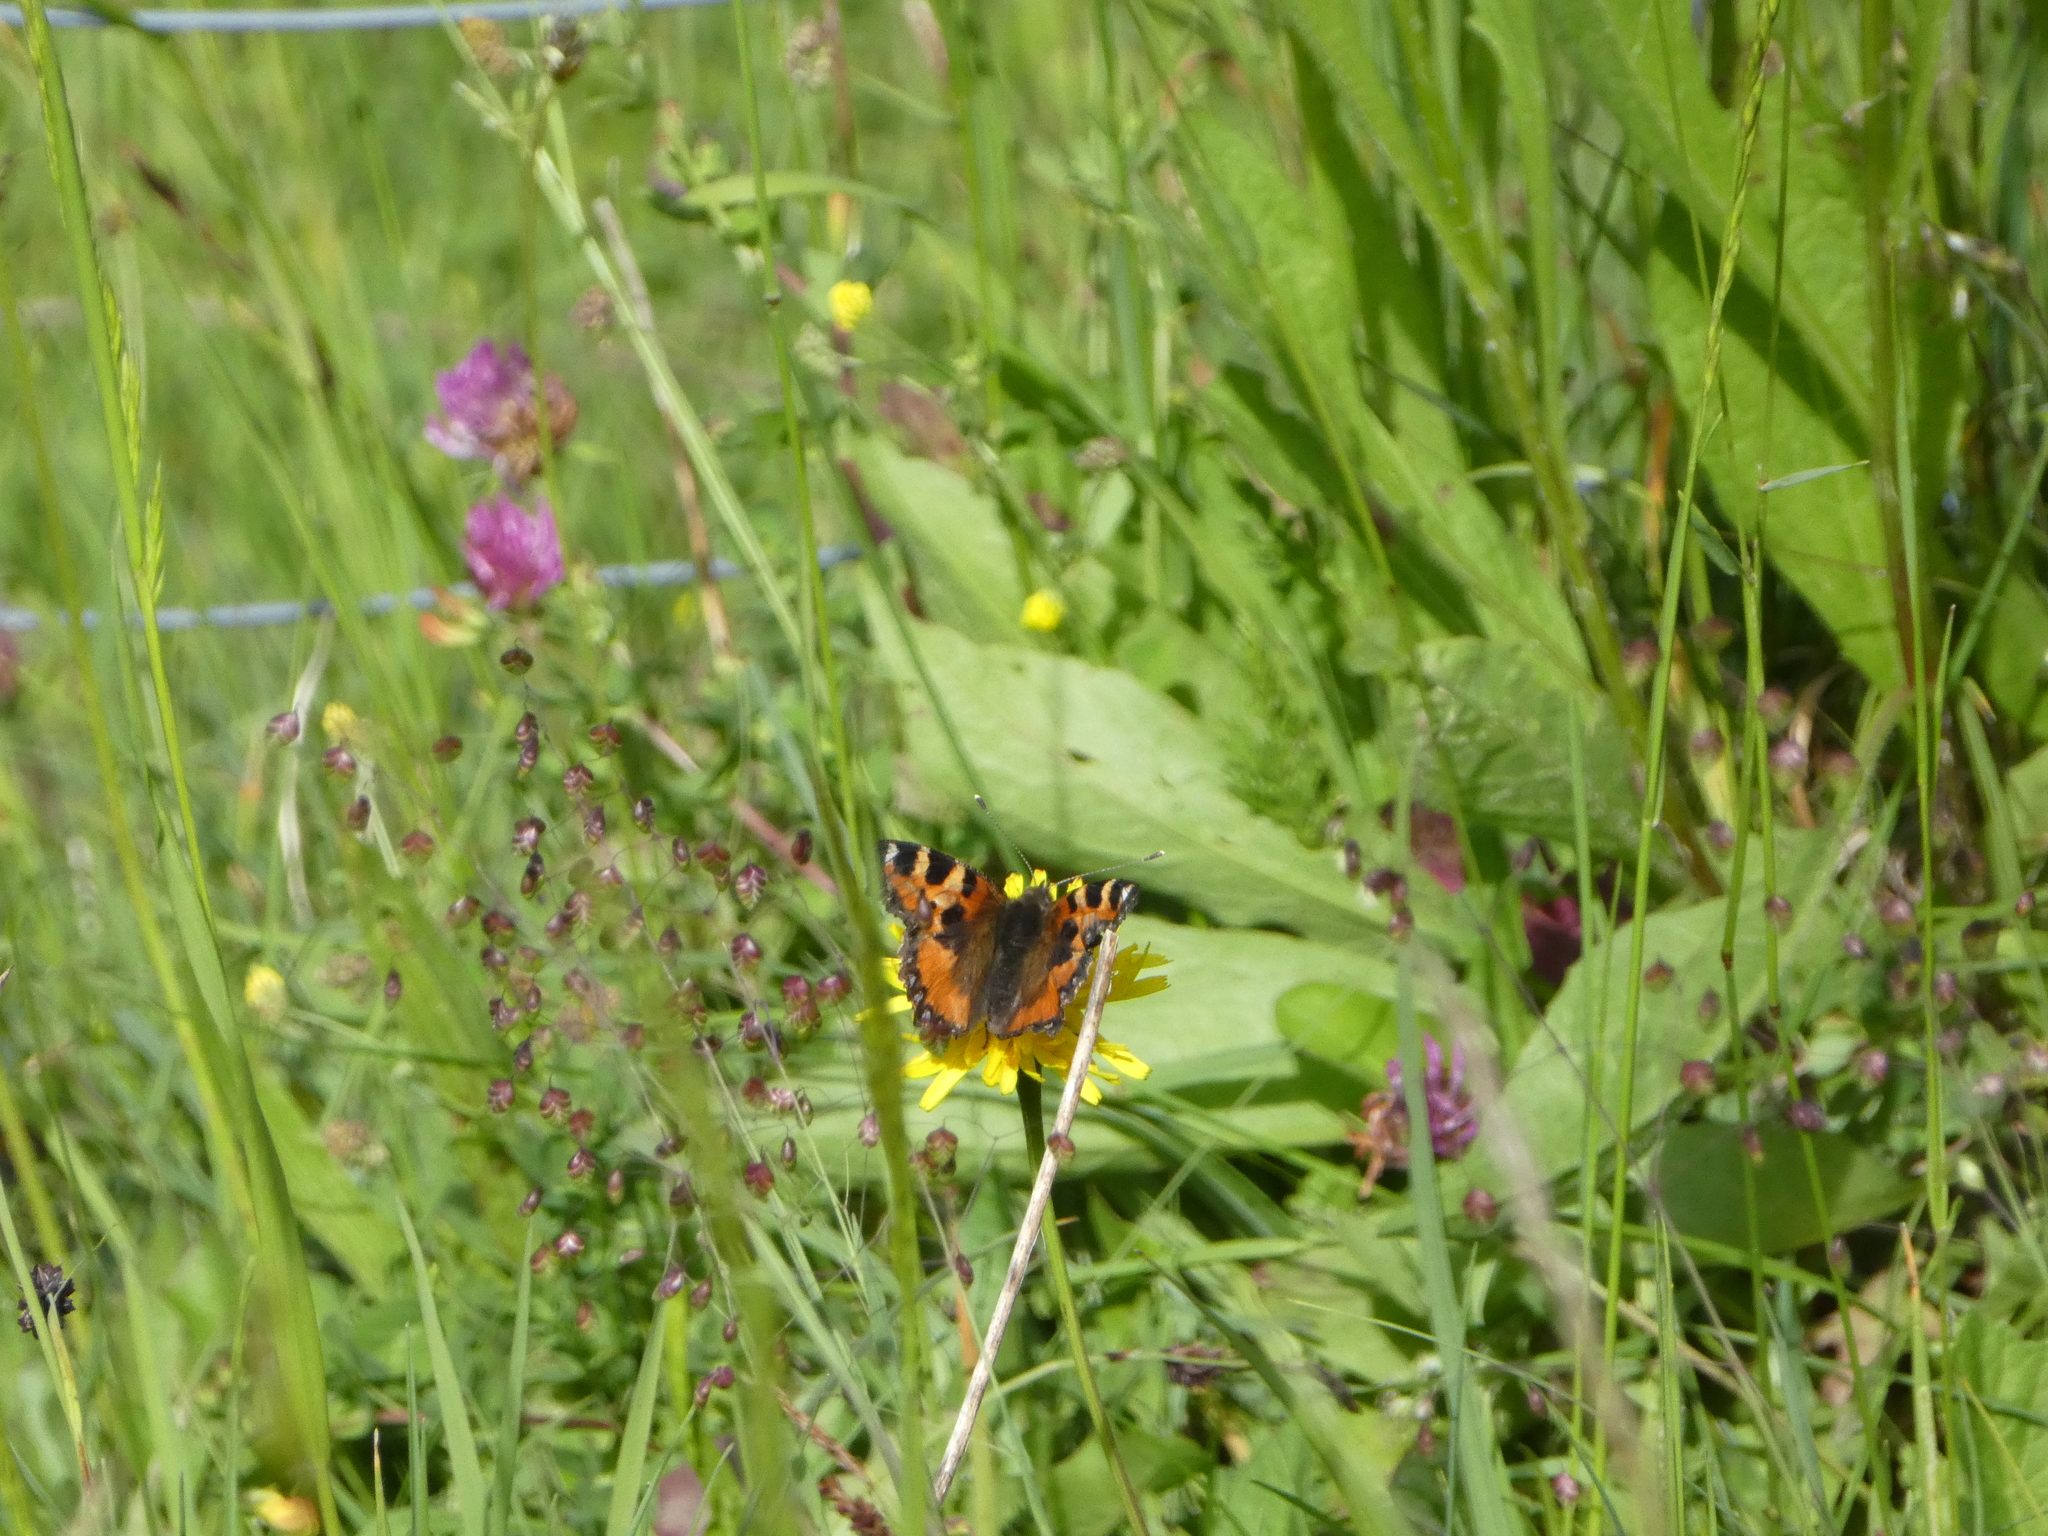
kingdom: Animalia
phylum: Arthropoda
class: Insecta
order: Lepidoptera
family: Nymphalidae
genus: Aglais
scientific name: Aglais urticae
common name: Small tortoiseshell
